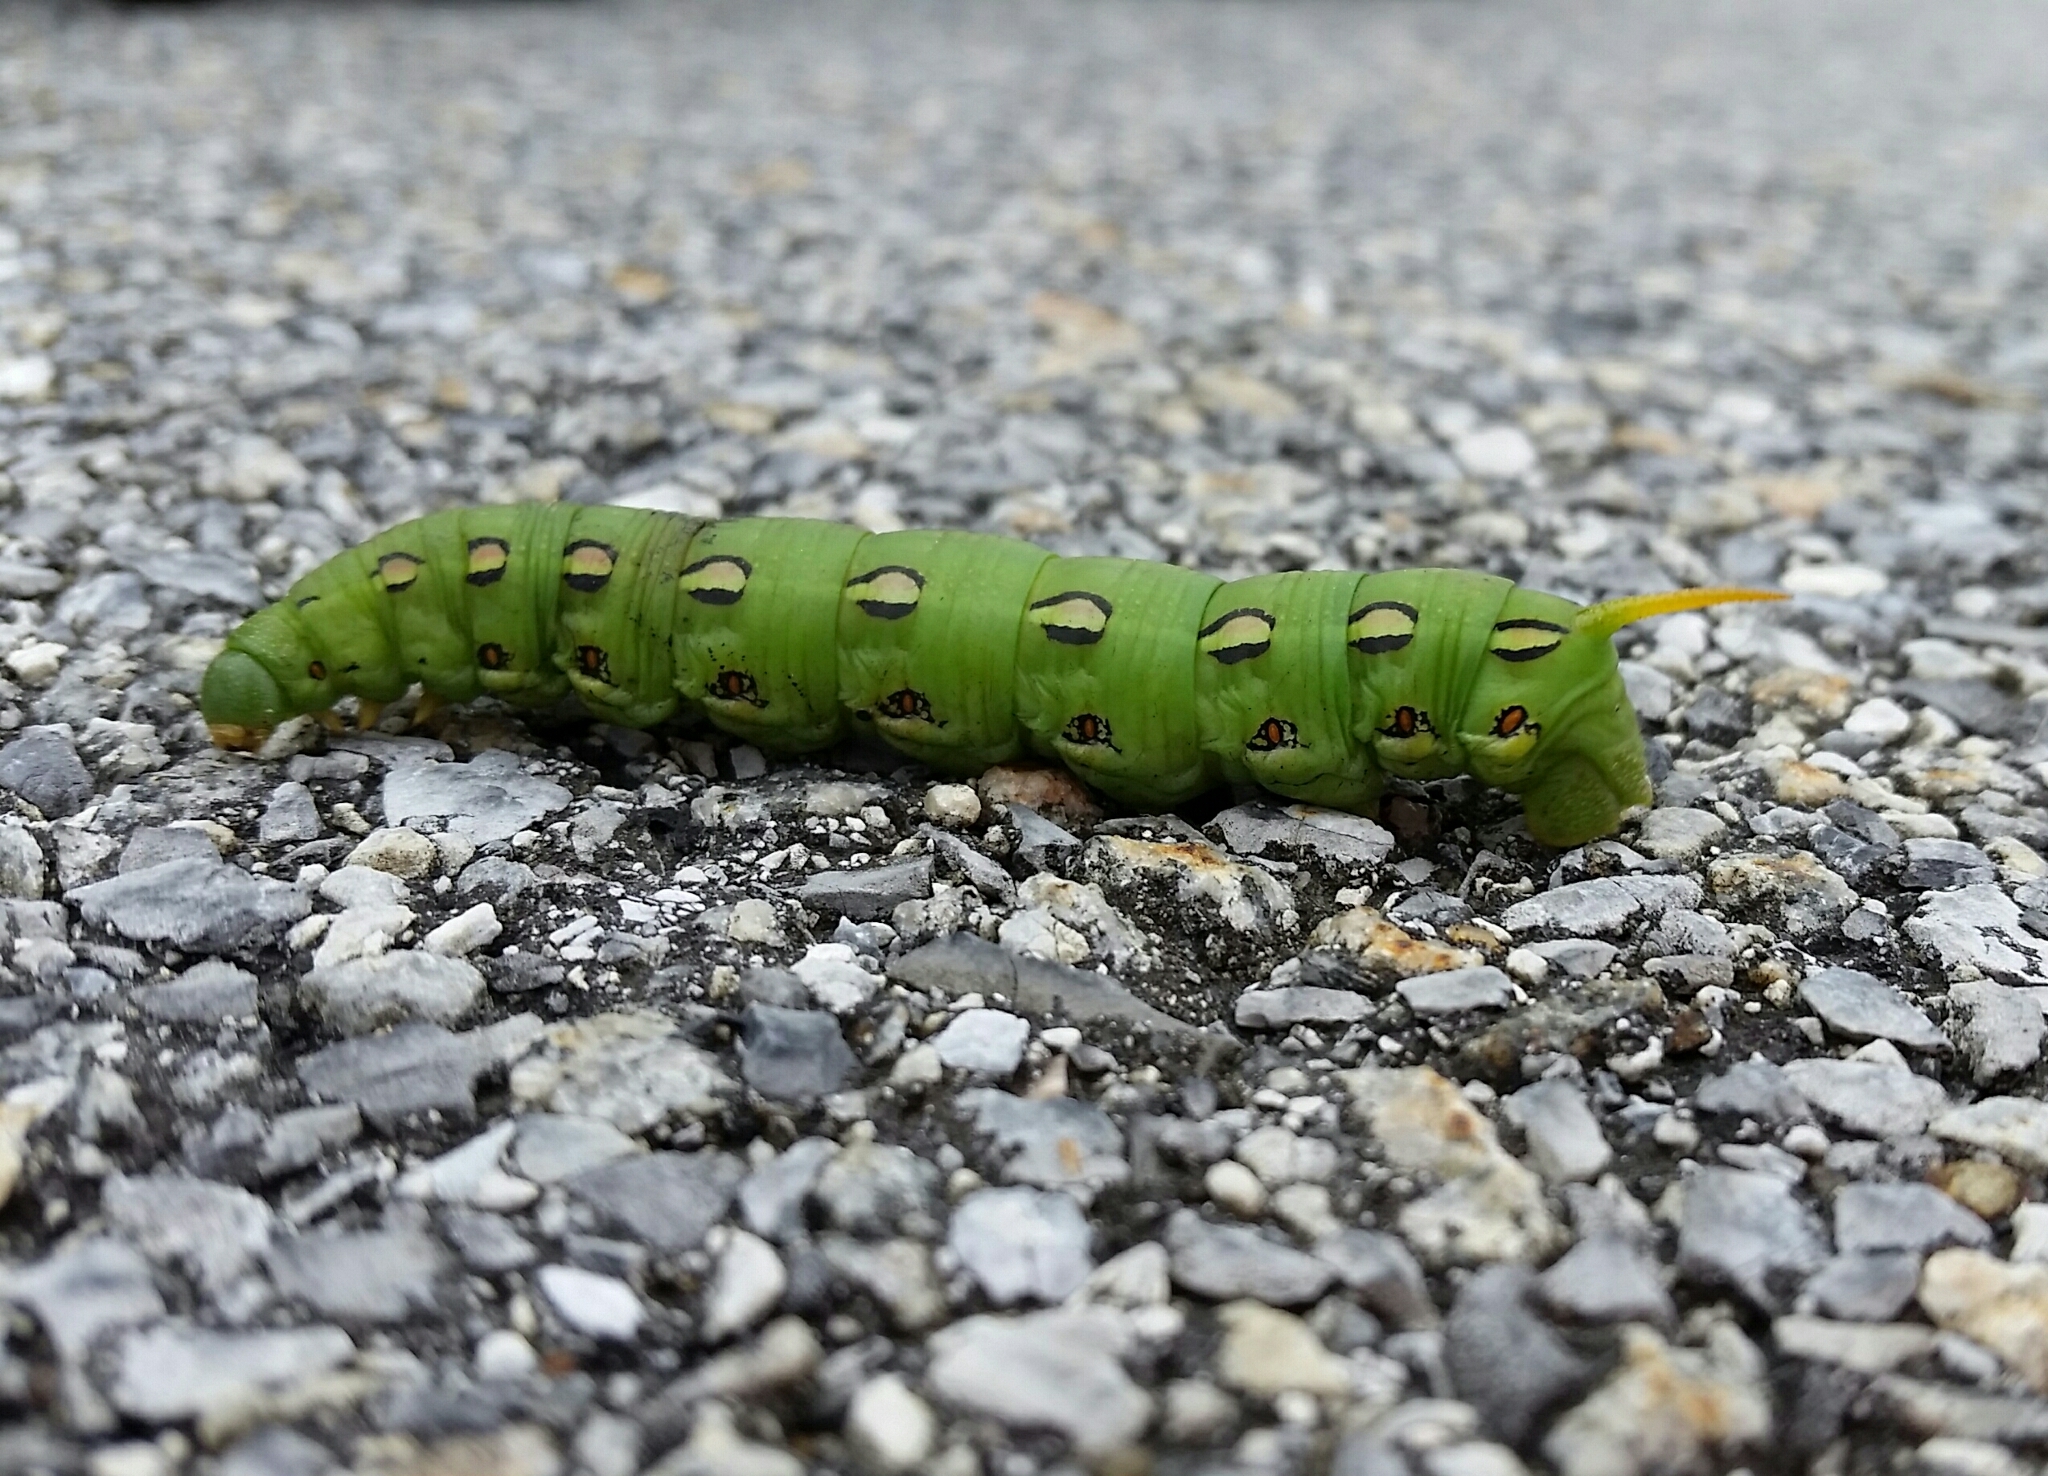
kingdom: Animalia
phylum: Arthropoda
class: Insecta
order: Lepidoptera
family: Sphingidae
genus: Hyles
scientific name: Hyles lineata
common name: White-lined sphinx
